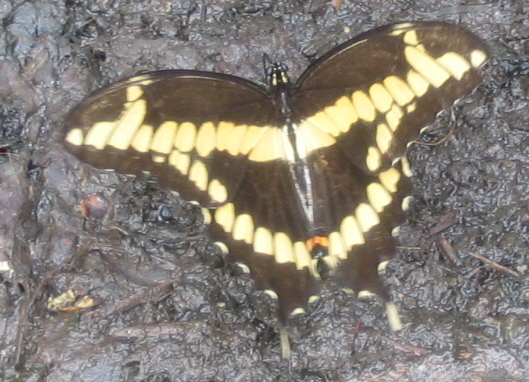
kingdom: Animalia
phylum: Arthropoda
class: Insecta
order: Lepidoptera
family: Papilionidae
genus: Papilio
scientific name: Papilio cresphontes
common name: Giant swallowtail
